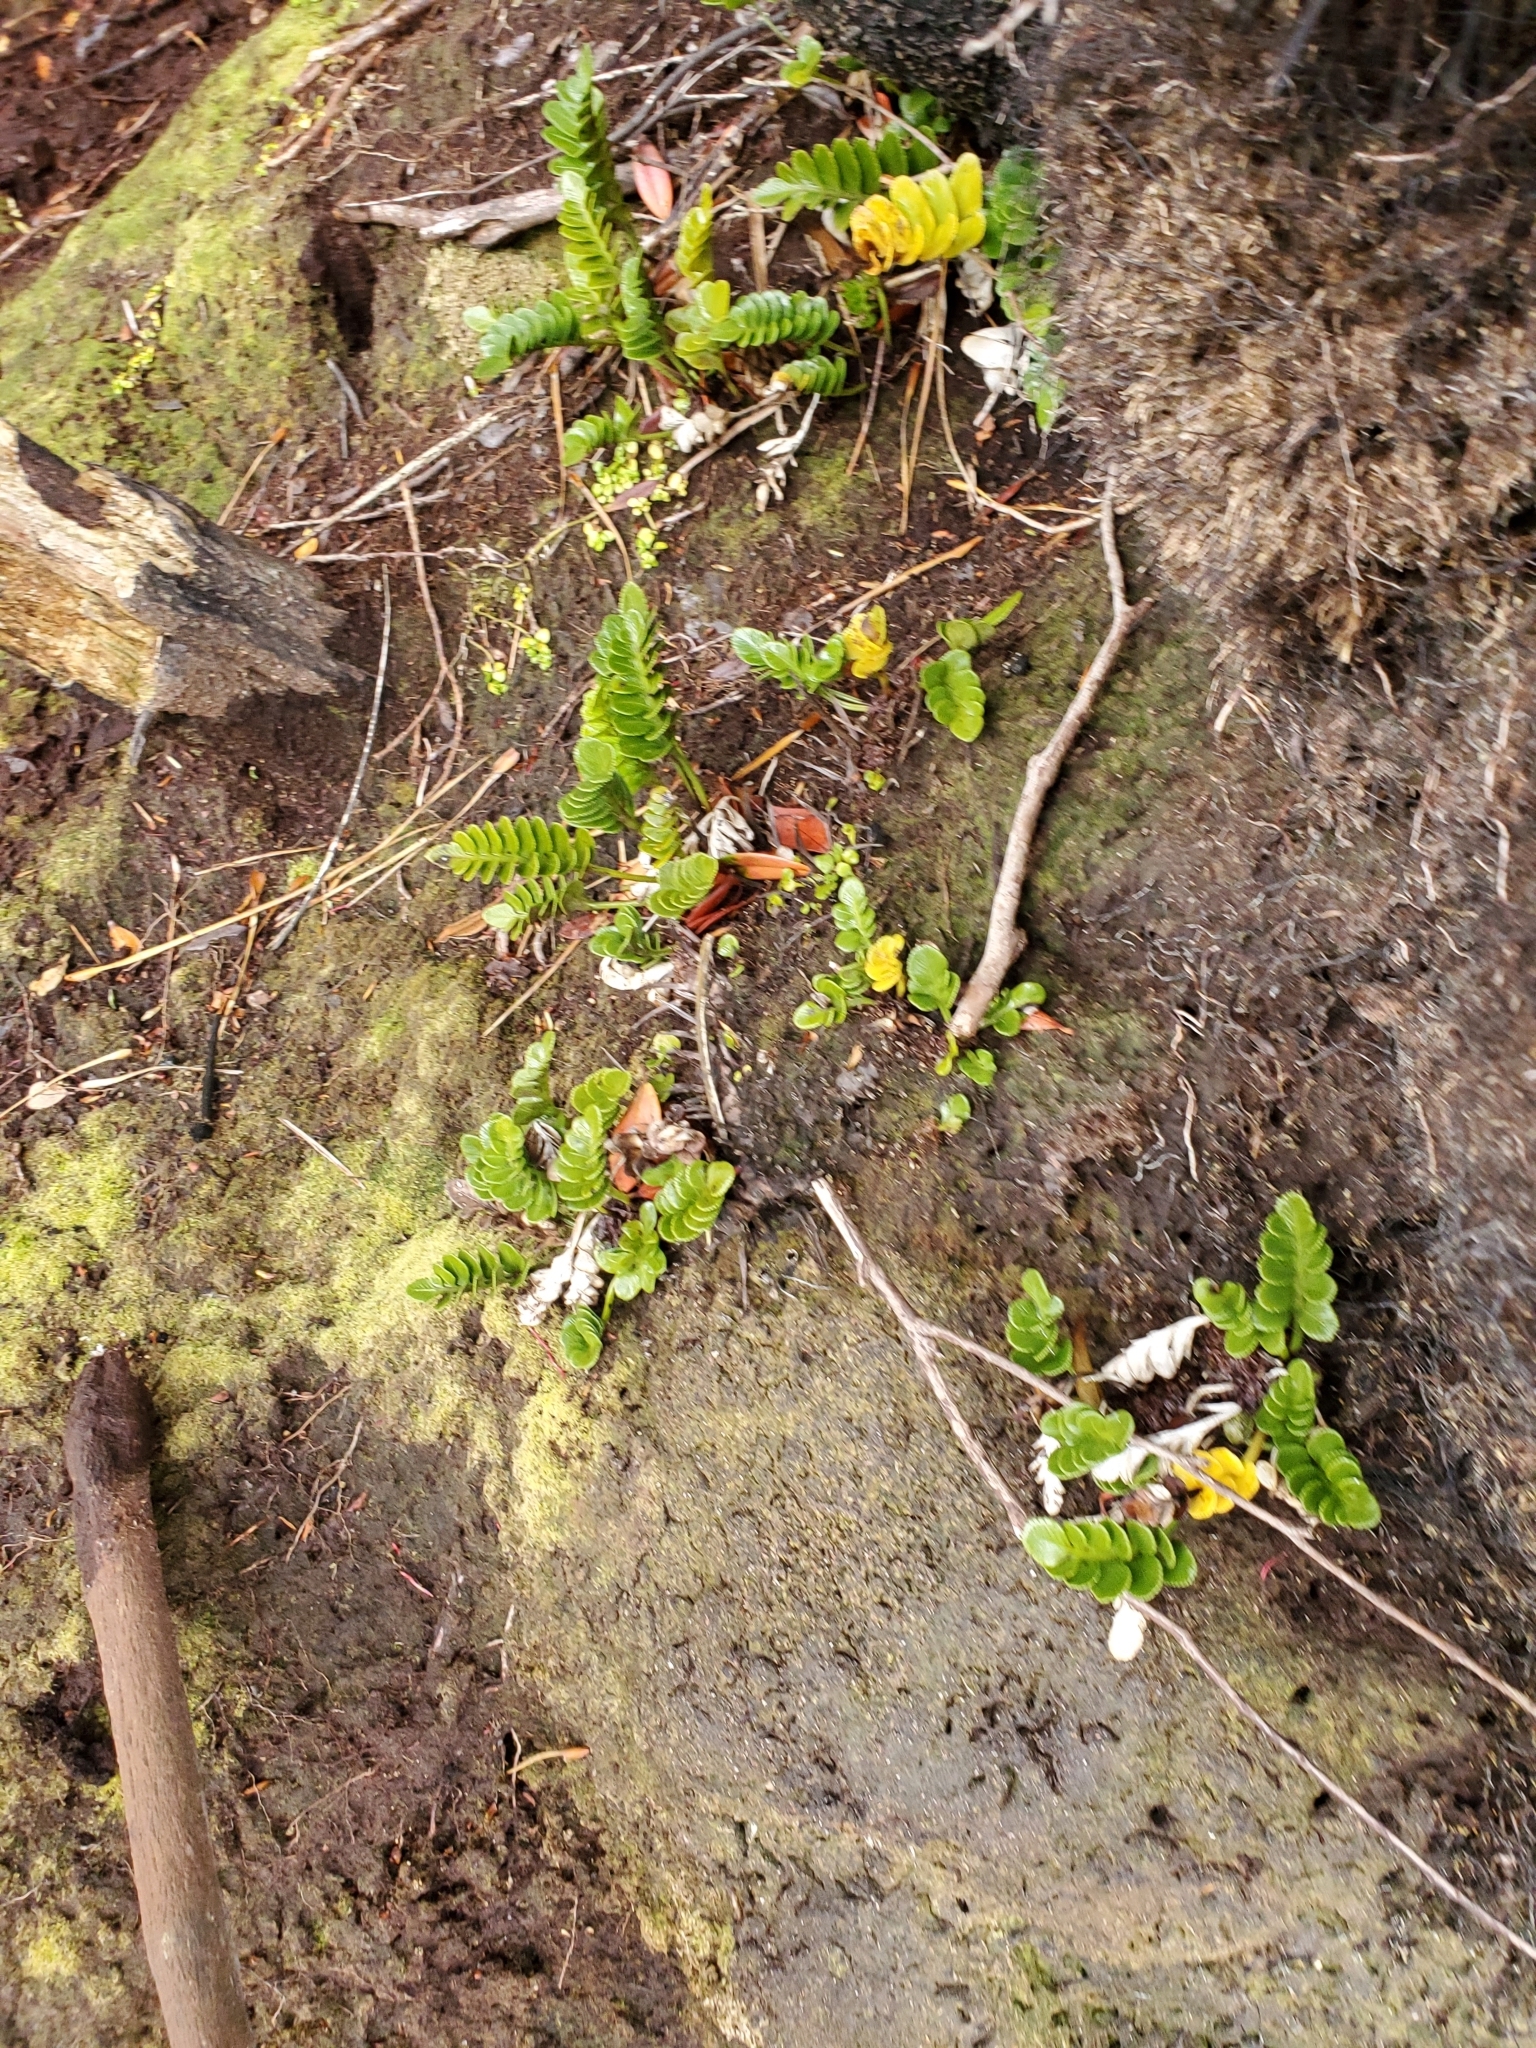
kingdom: Plantae
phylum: Tracheophyta
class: Polypodiopsida
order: Polypodiales
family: Aspleniaceae
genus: Asplenium
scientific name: Asplenium obtusatum
